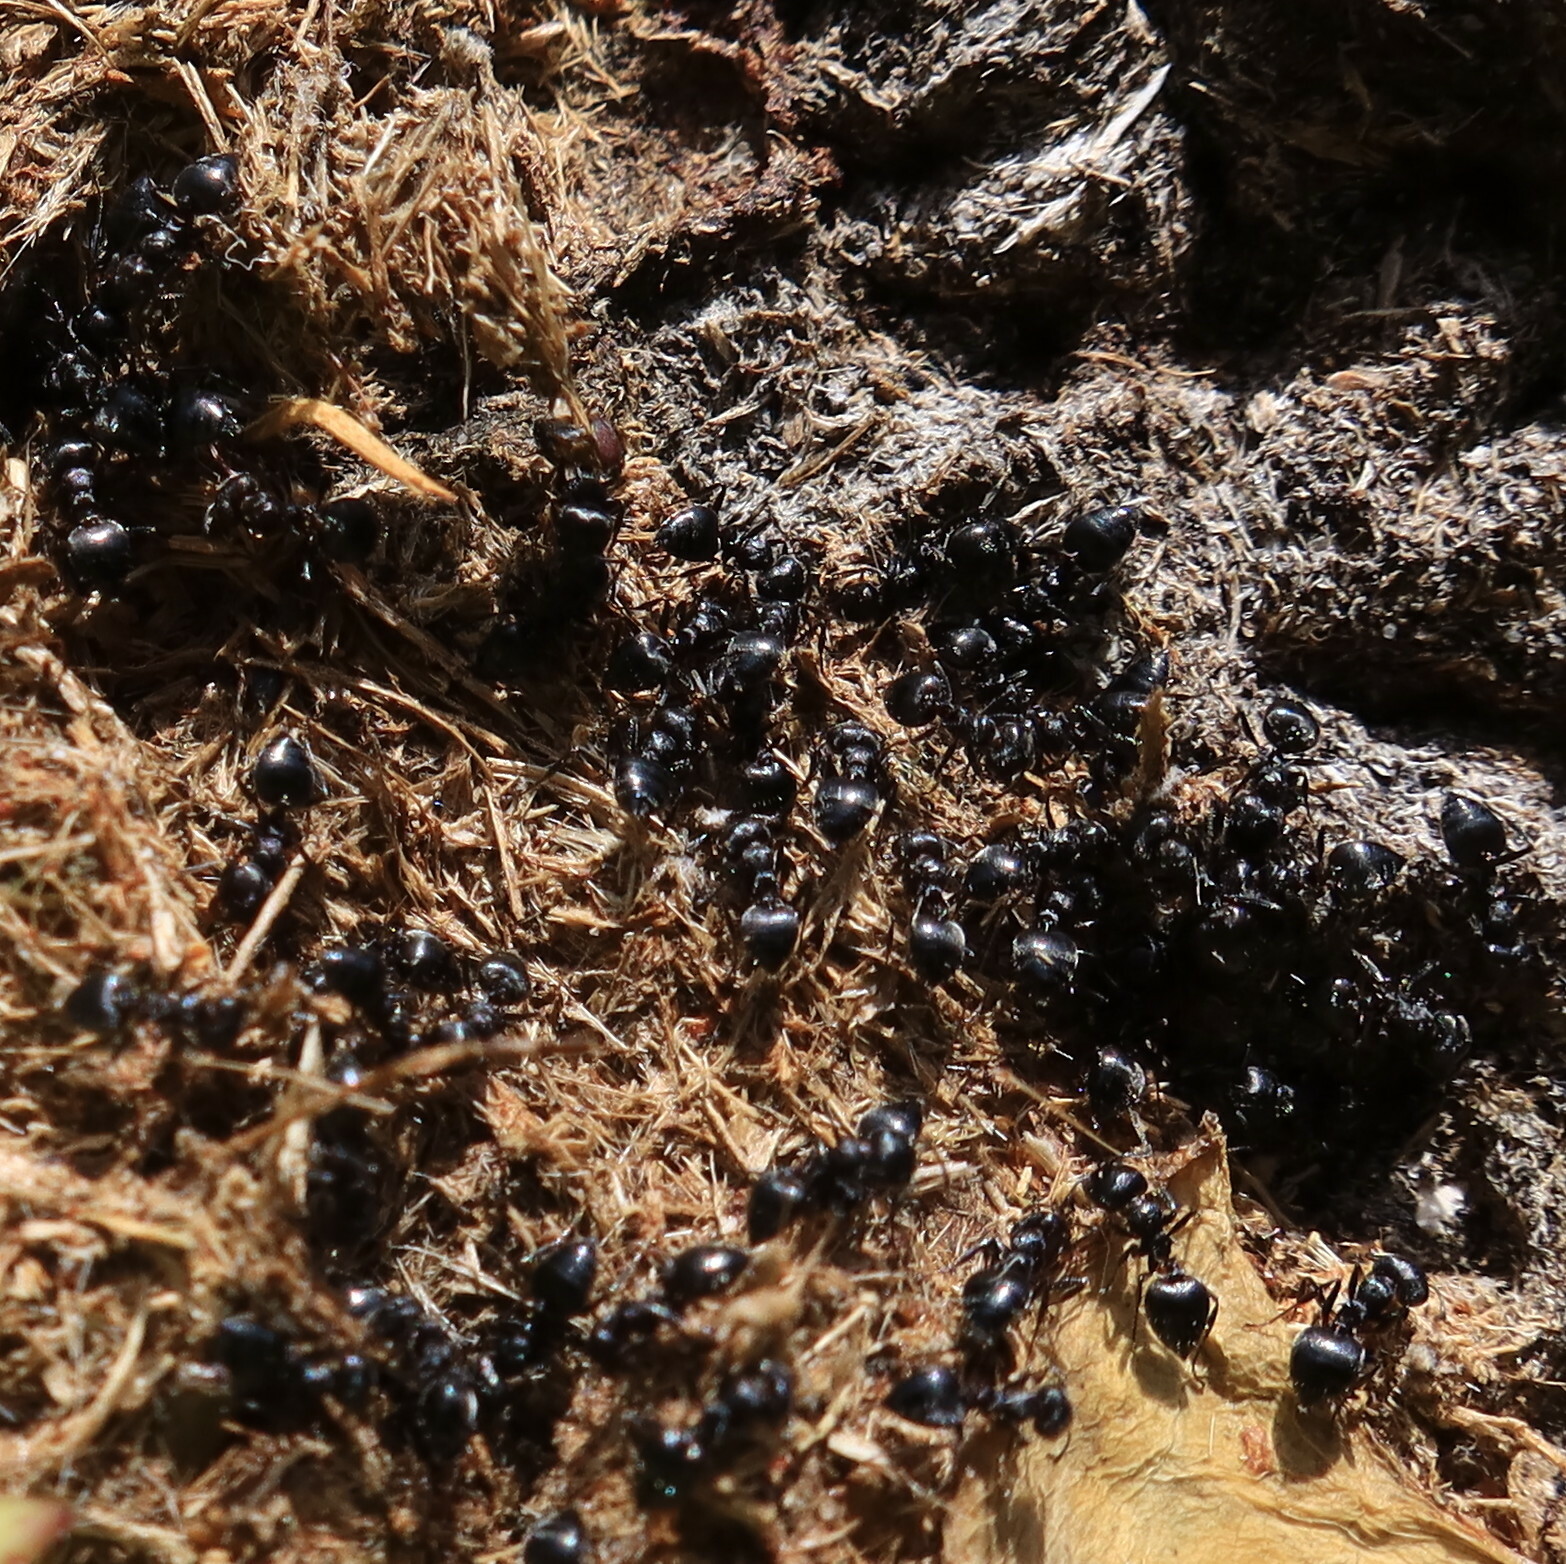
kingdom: Animalia
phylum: Arthropoda
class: Insecta
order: Hymenoptera
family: Formicidae
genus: Crematogaster
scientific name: Crematogaster peringueyi
